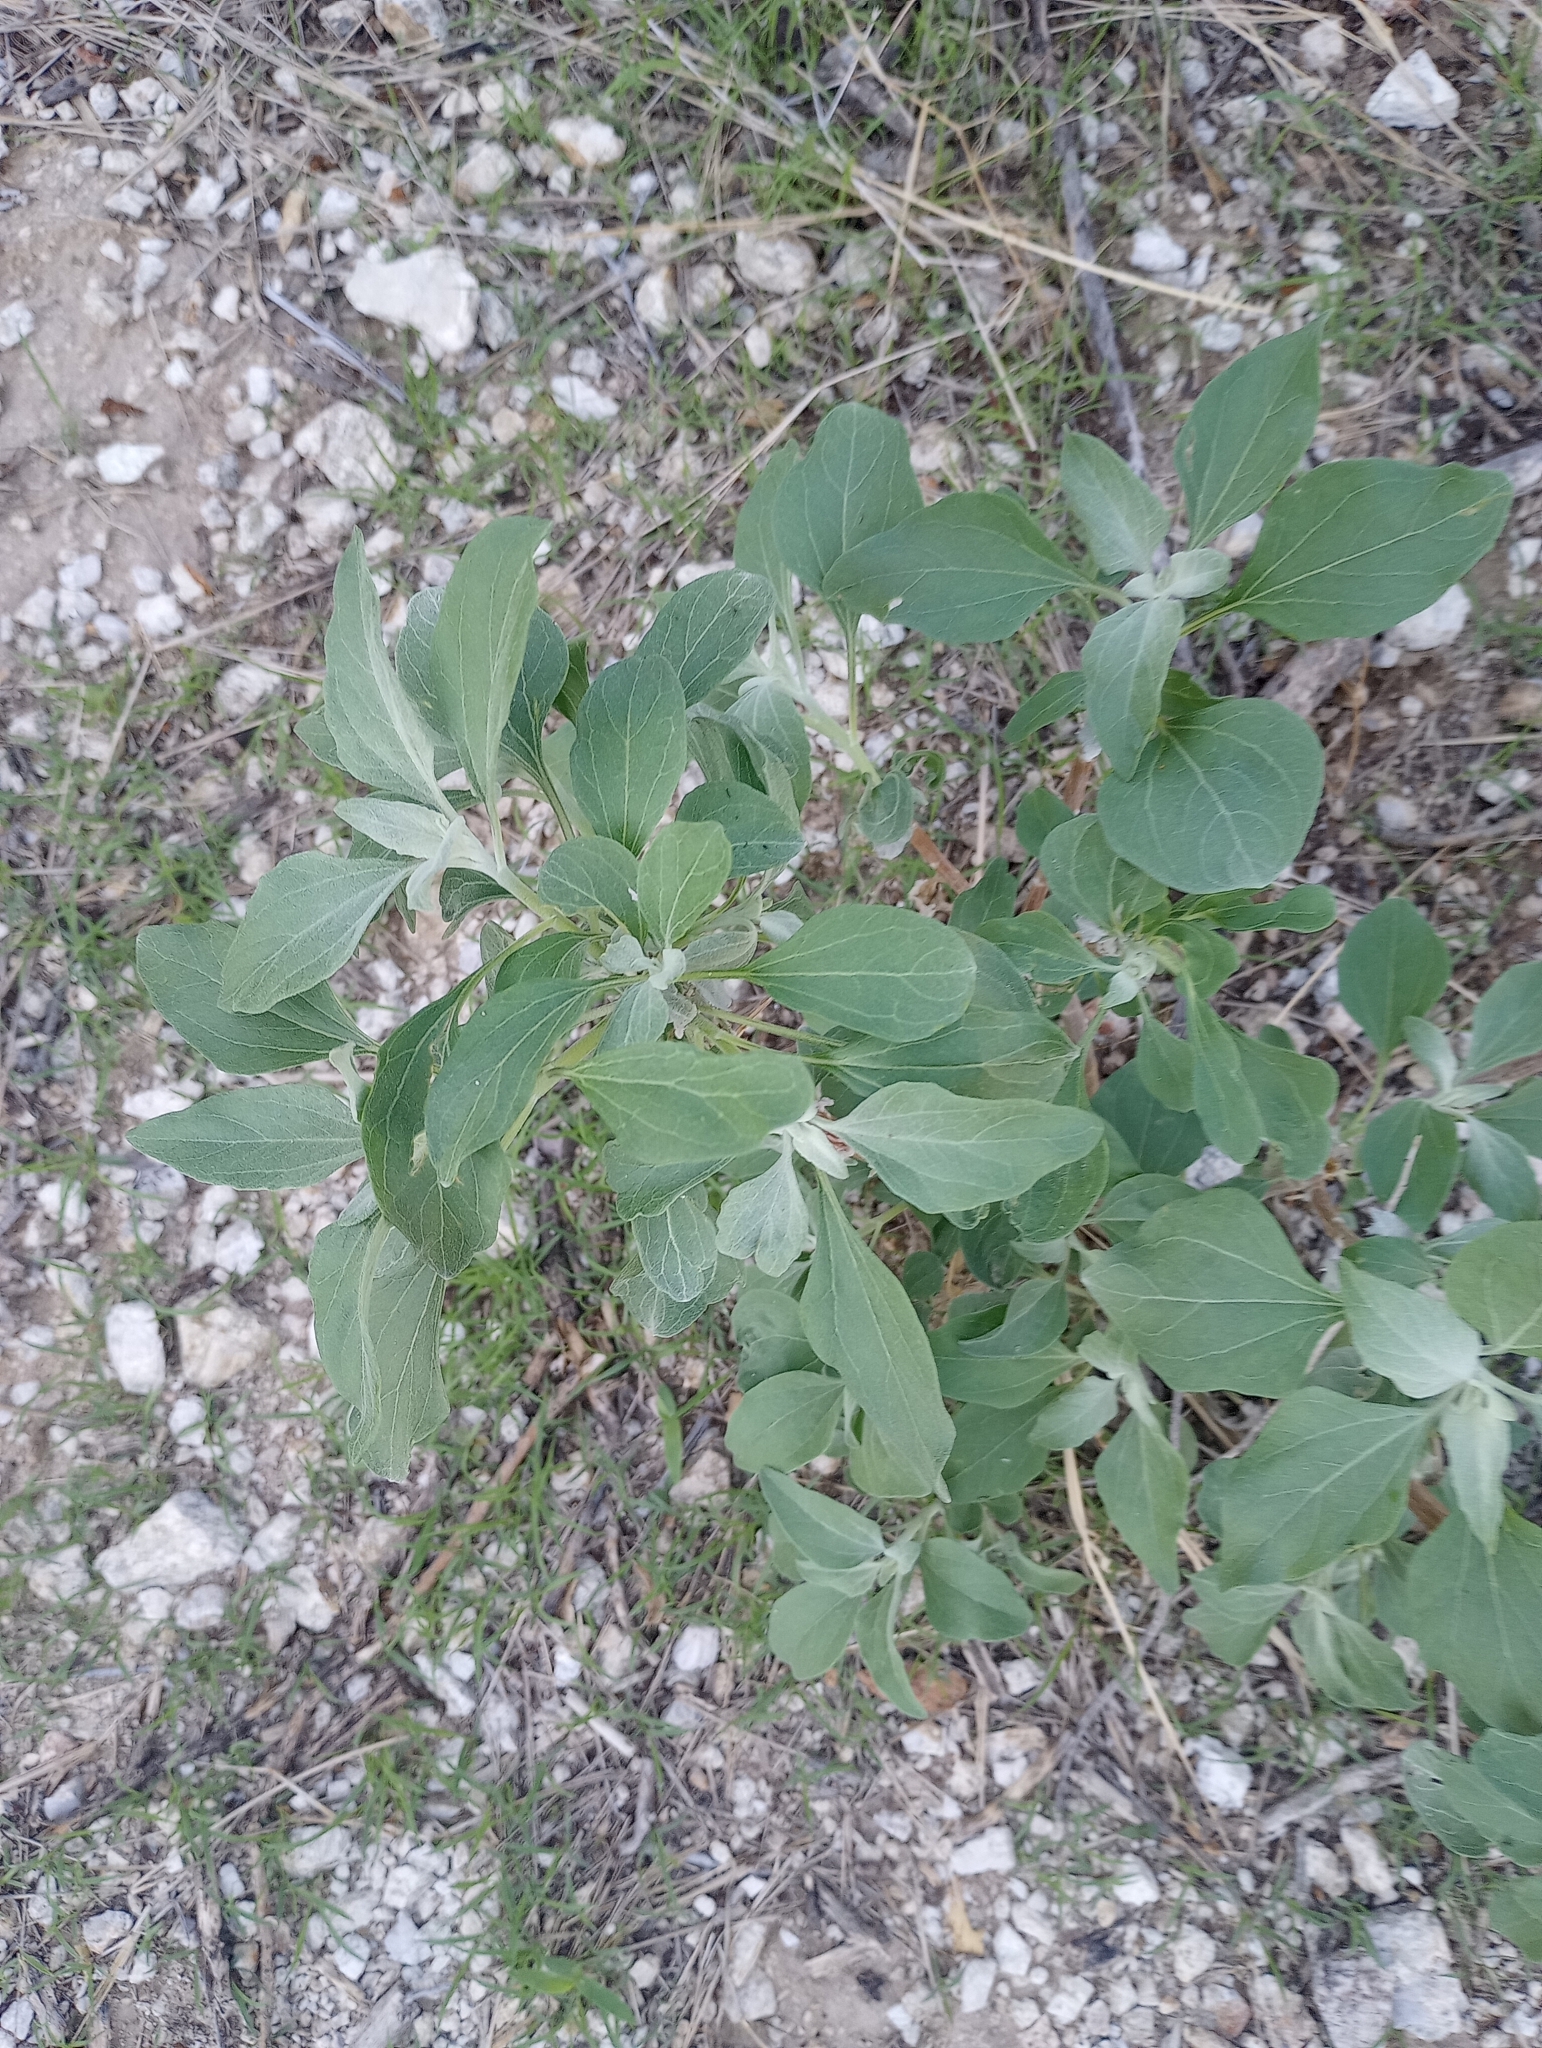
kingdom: Plantae
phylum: Tracheophyta
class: Magnoliopsida
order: Asterales
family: Asteraceae
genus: Encelia
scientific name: Encelia farinosa
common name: Brittlebush
